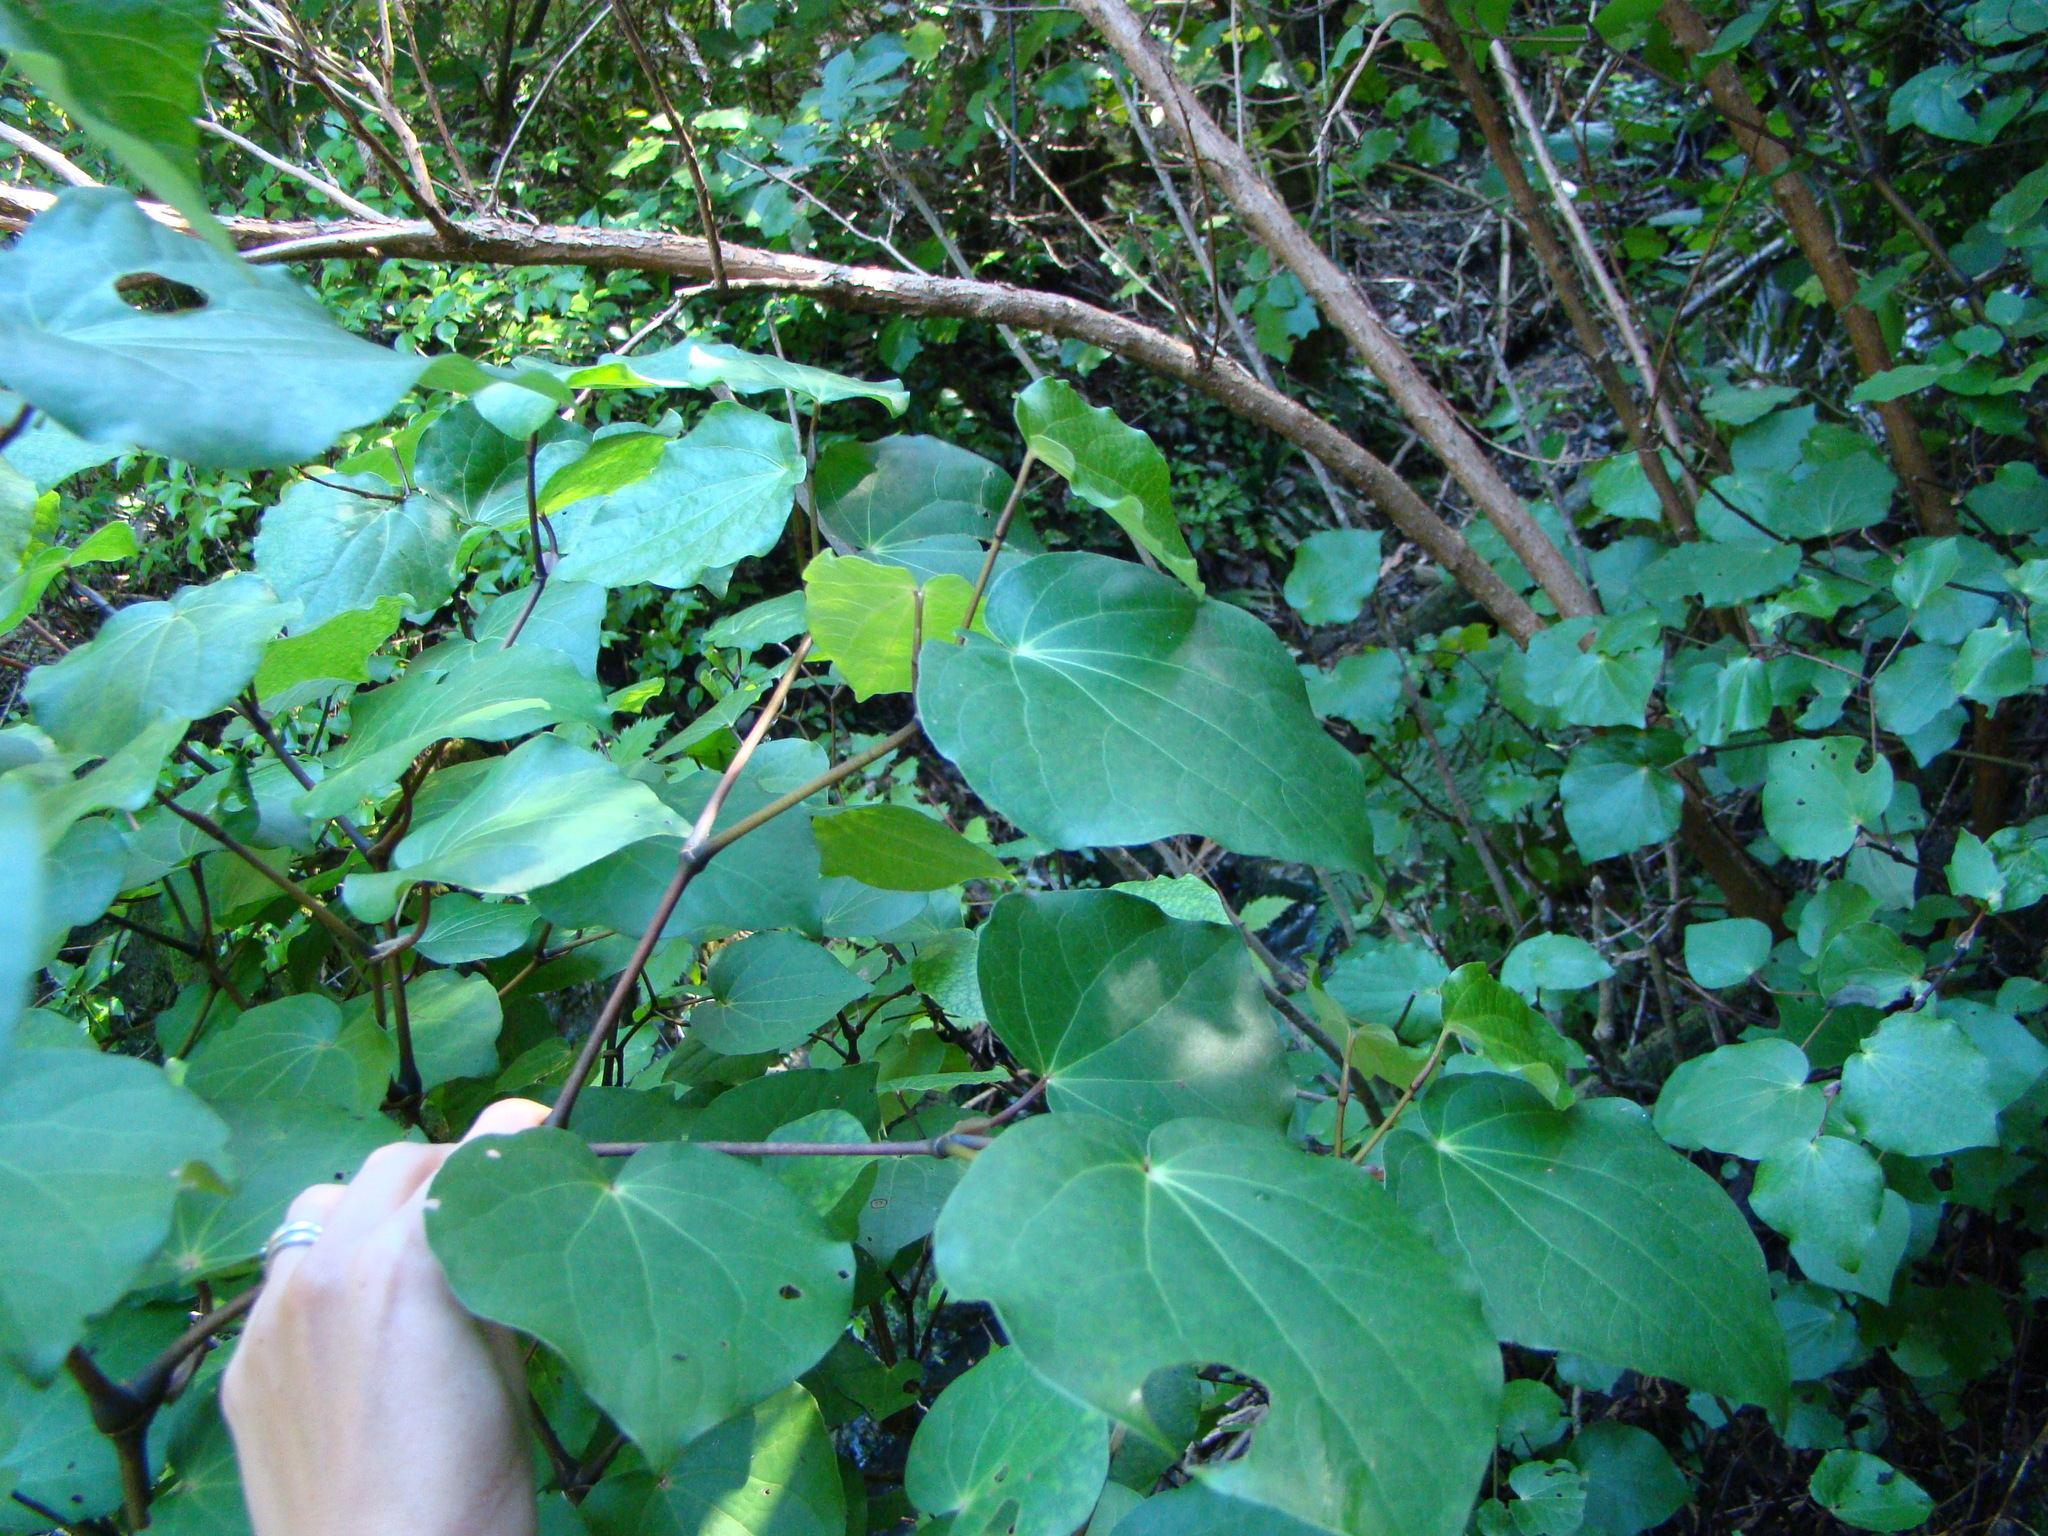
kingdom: Plantae
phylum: Tracheophyta
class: Magnoliopsida
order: Piperales
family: Piperaceae
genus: Macropiper
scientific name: Macropiper excelsum
